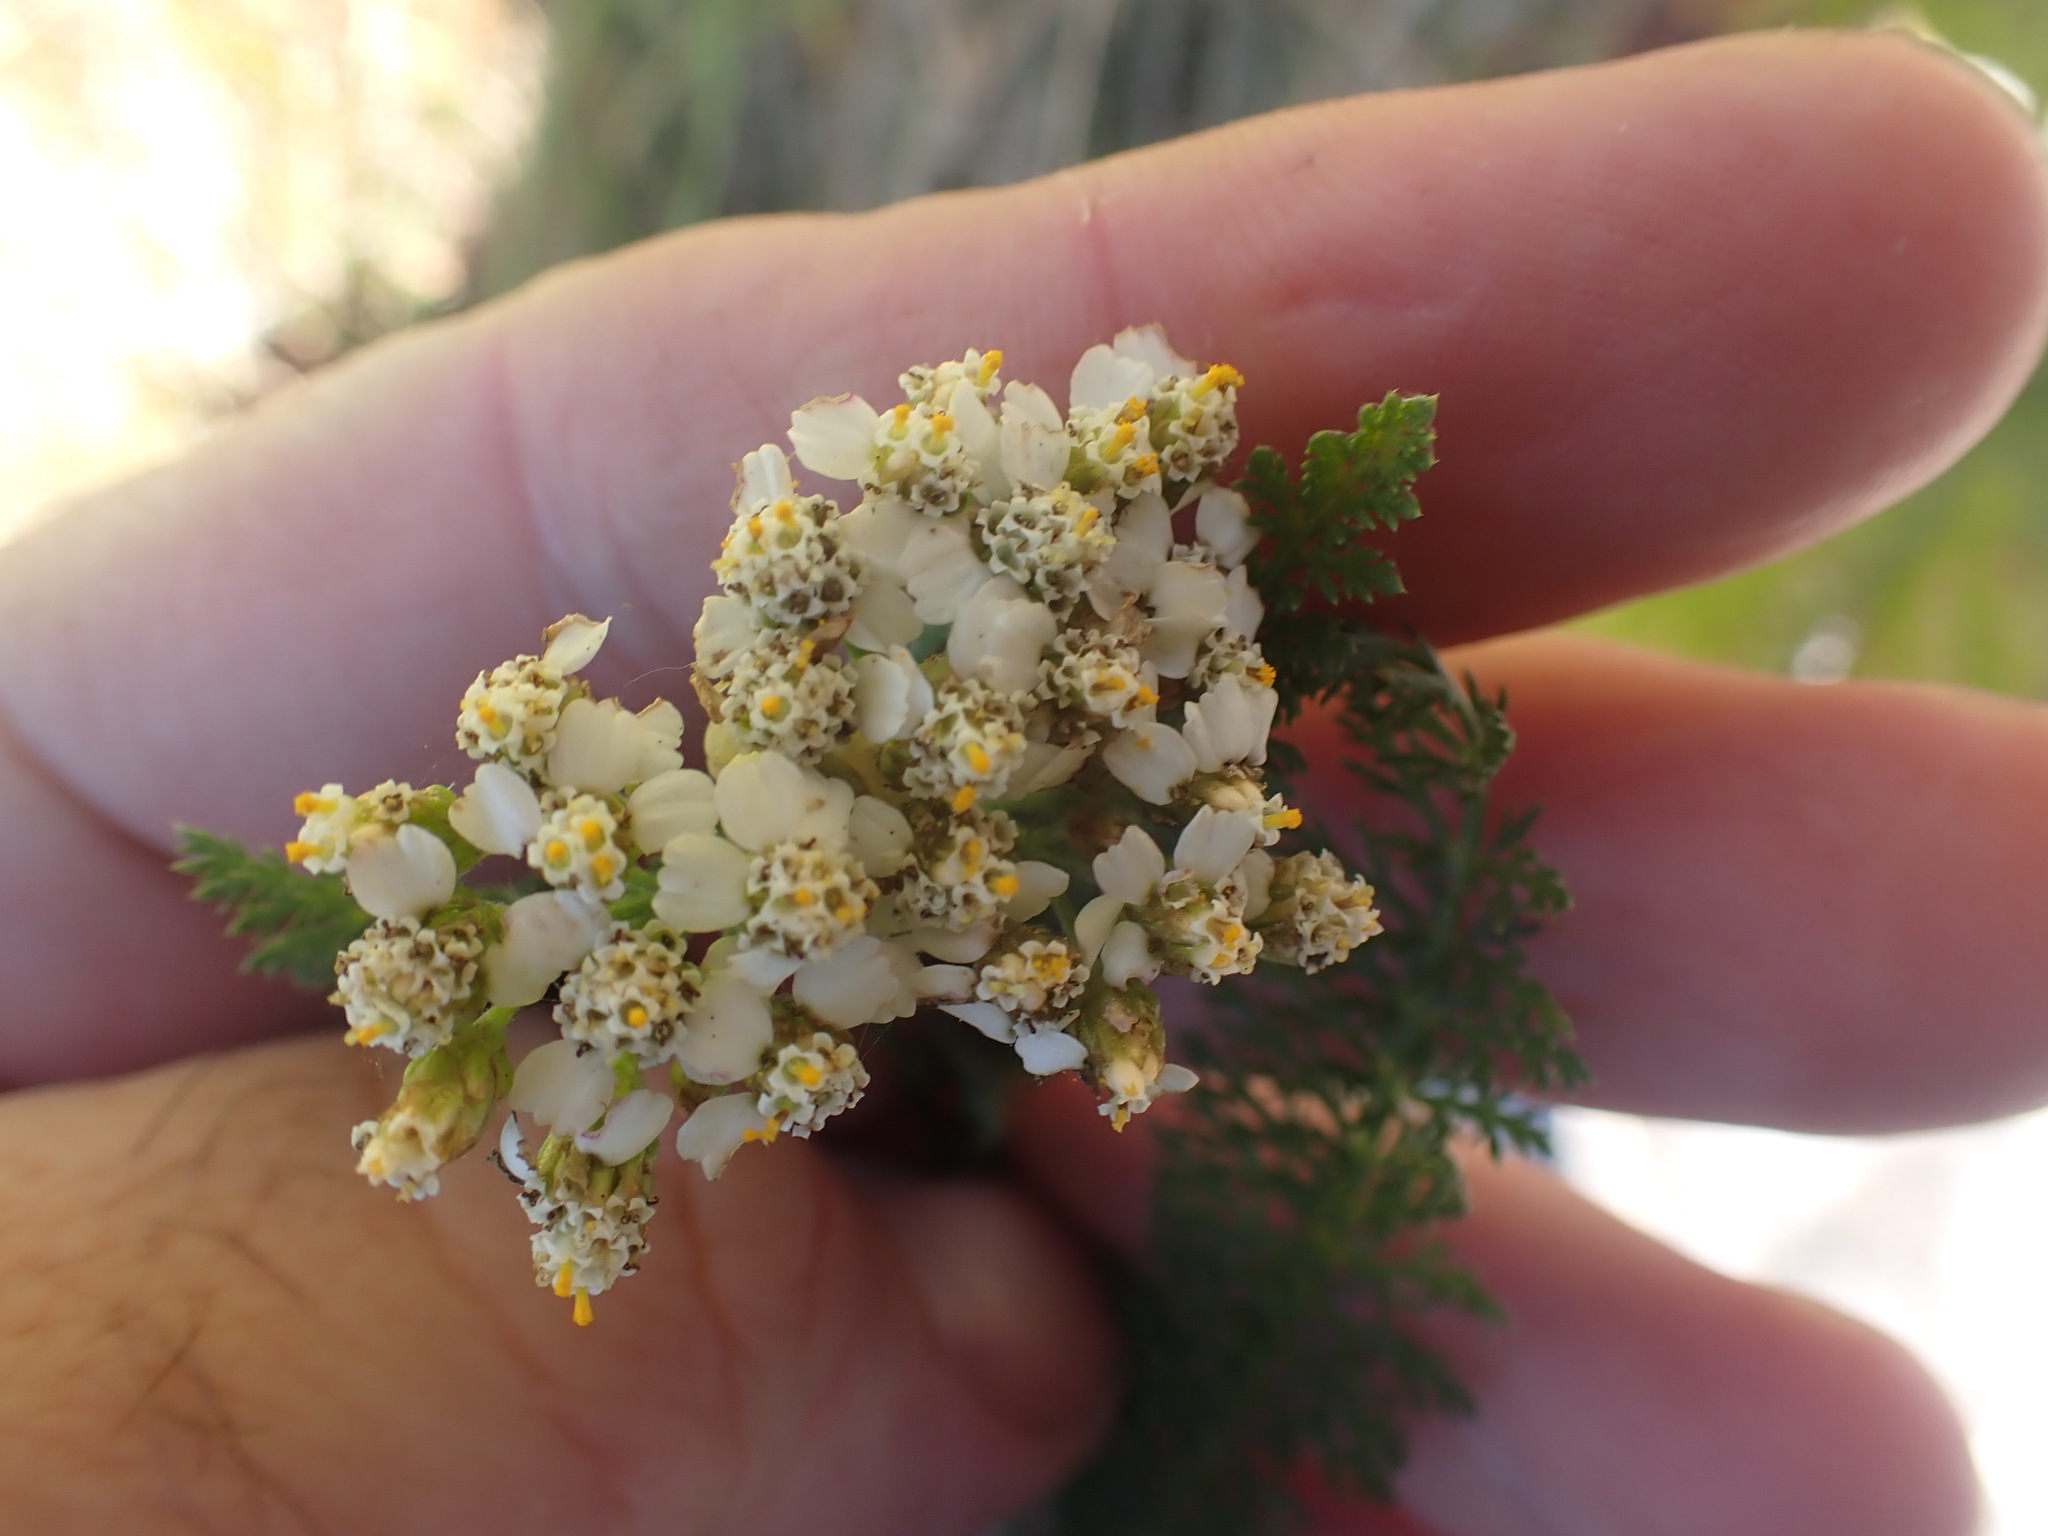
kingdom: Plantae
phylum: Tracheophyta
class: Magnoliopsida
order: Asterales
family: Asteraceae
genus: Achillea
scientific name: Achillea millefolium
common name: Yarrow
